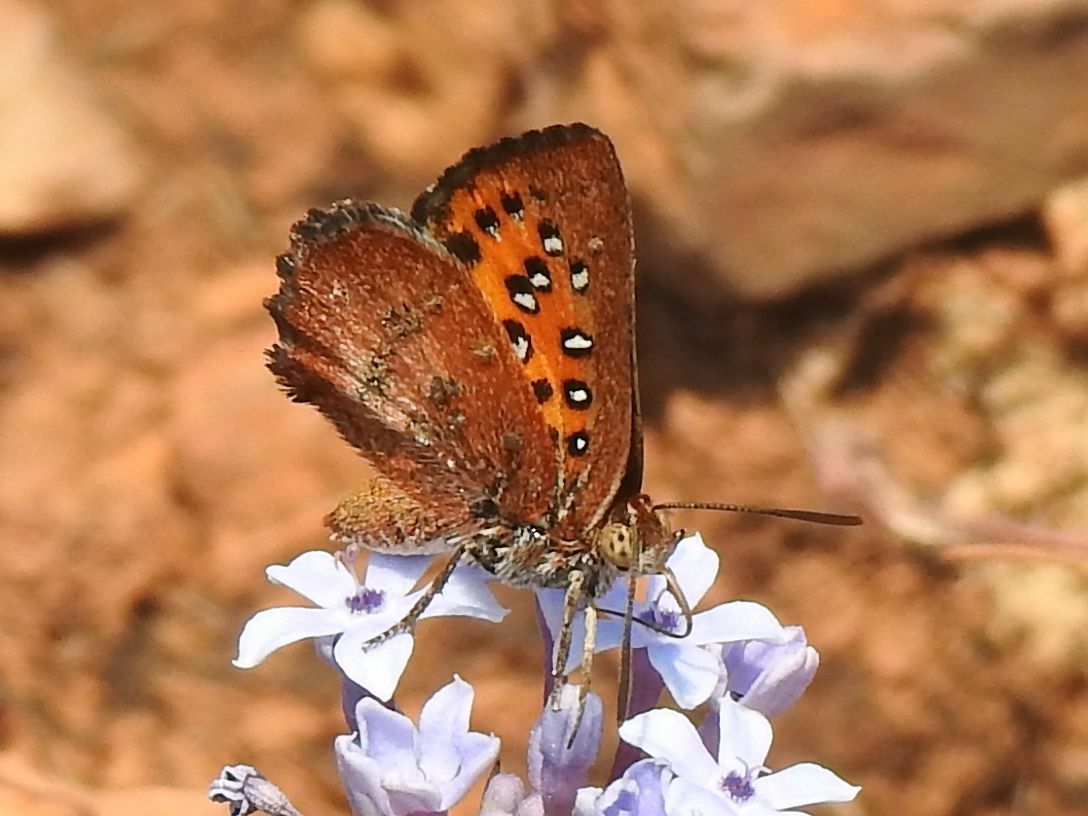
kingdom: Animalia
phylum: Arthropoda
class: Insecta
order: Lepidoptera
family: Lycaenidae
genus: Aloeides
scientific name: Aloeides swanepoeli
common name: Swanepoel's copper
